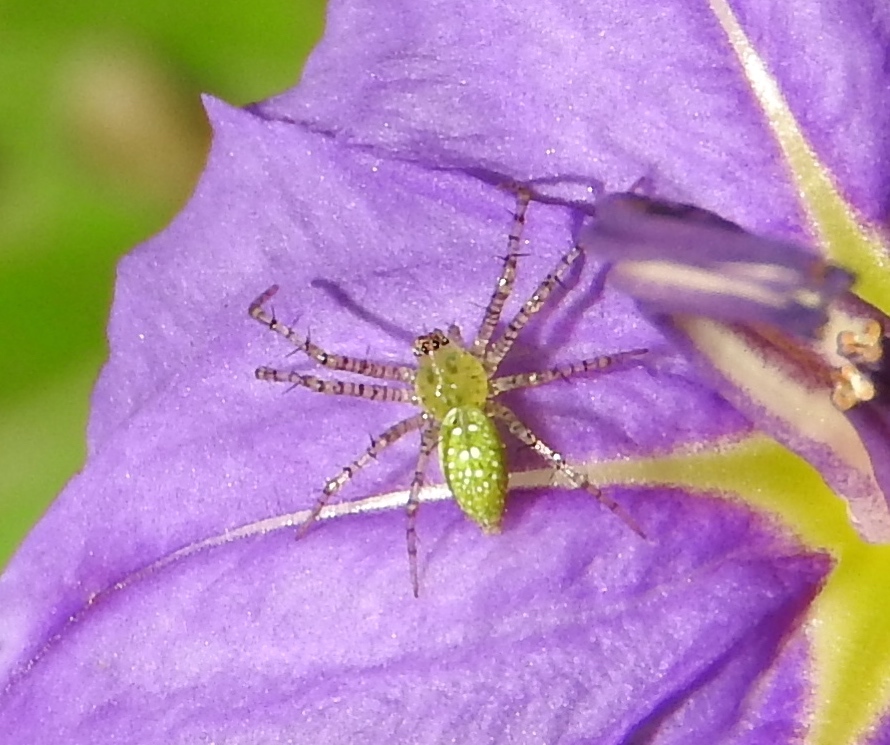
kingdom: Animalia
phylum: Arthropoda
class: Arachnida
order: Araneae
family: Oxyopidae
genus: Peucetia
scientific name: Peucetia
